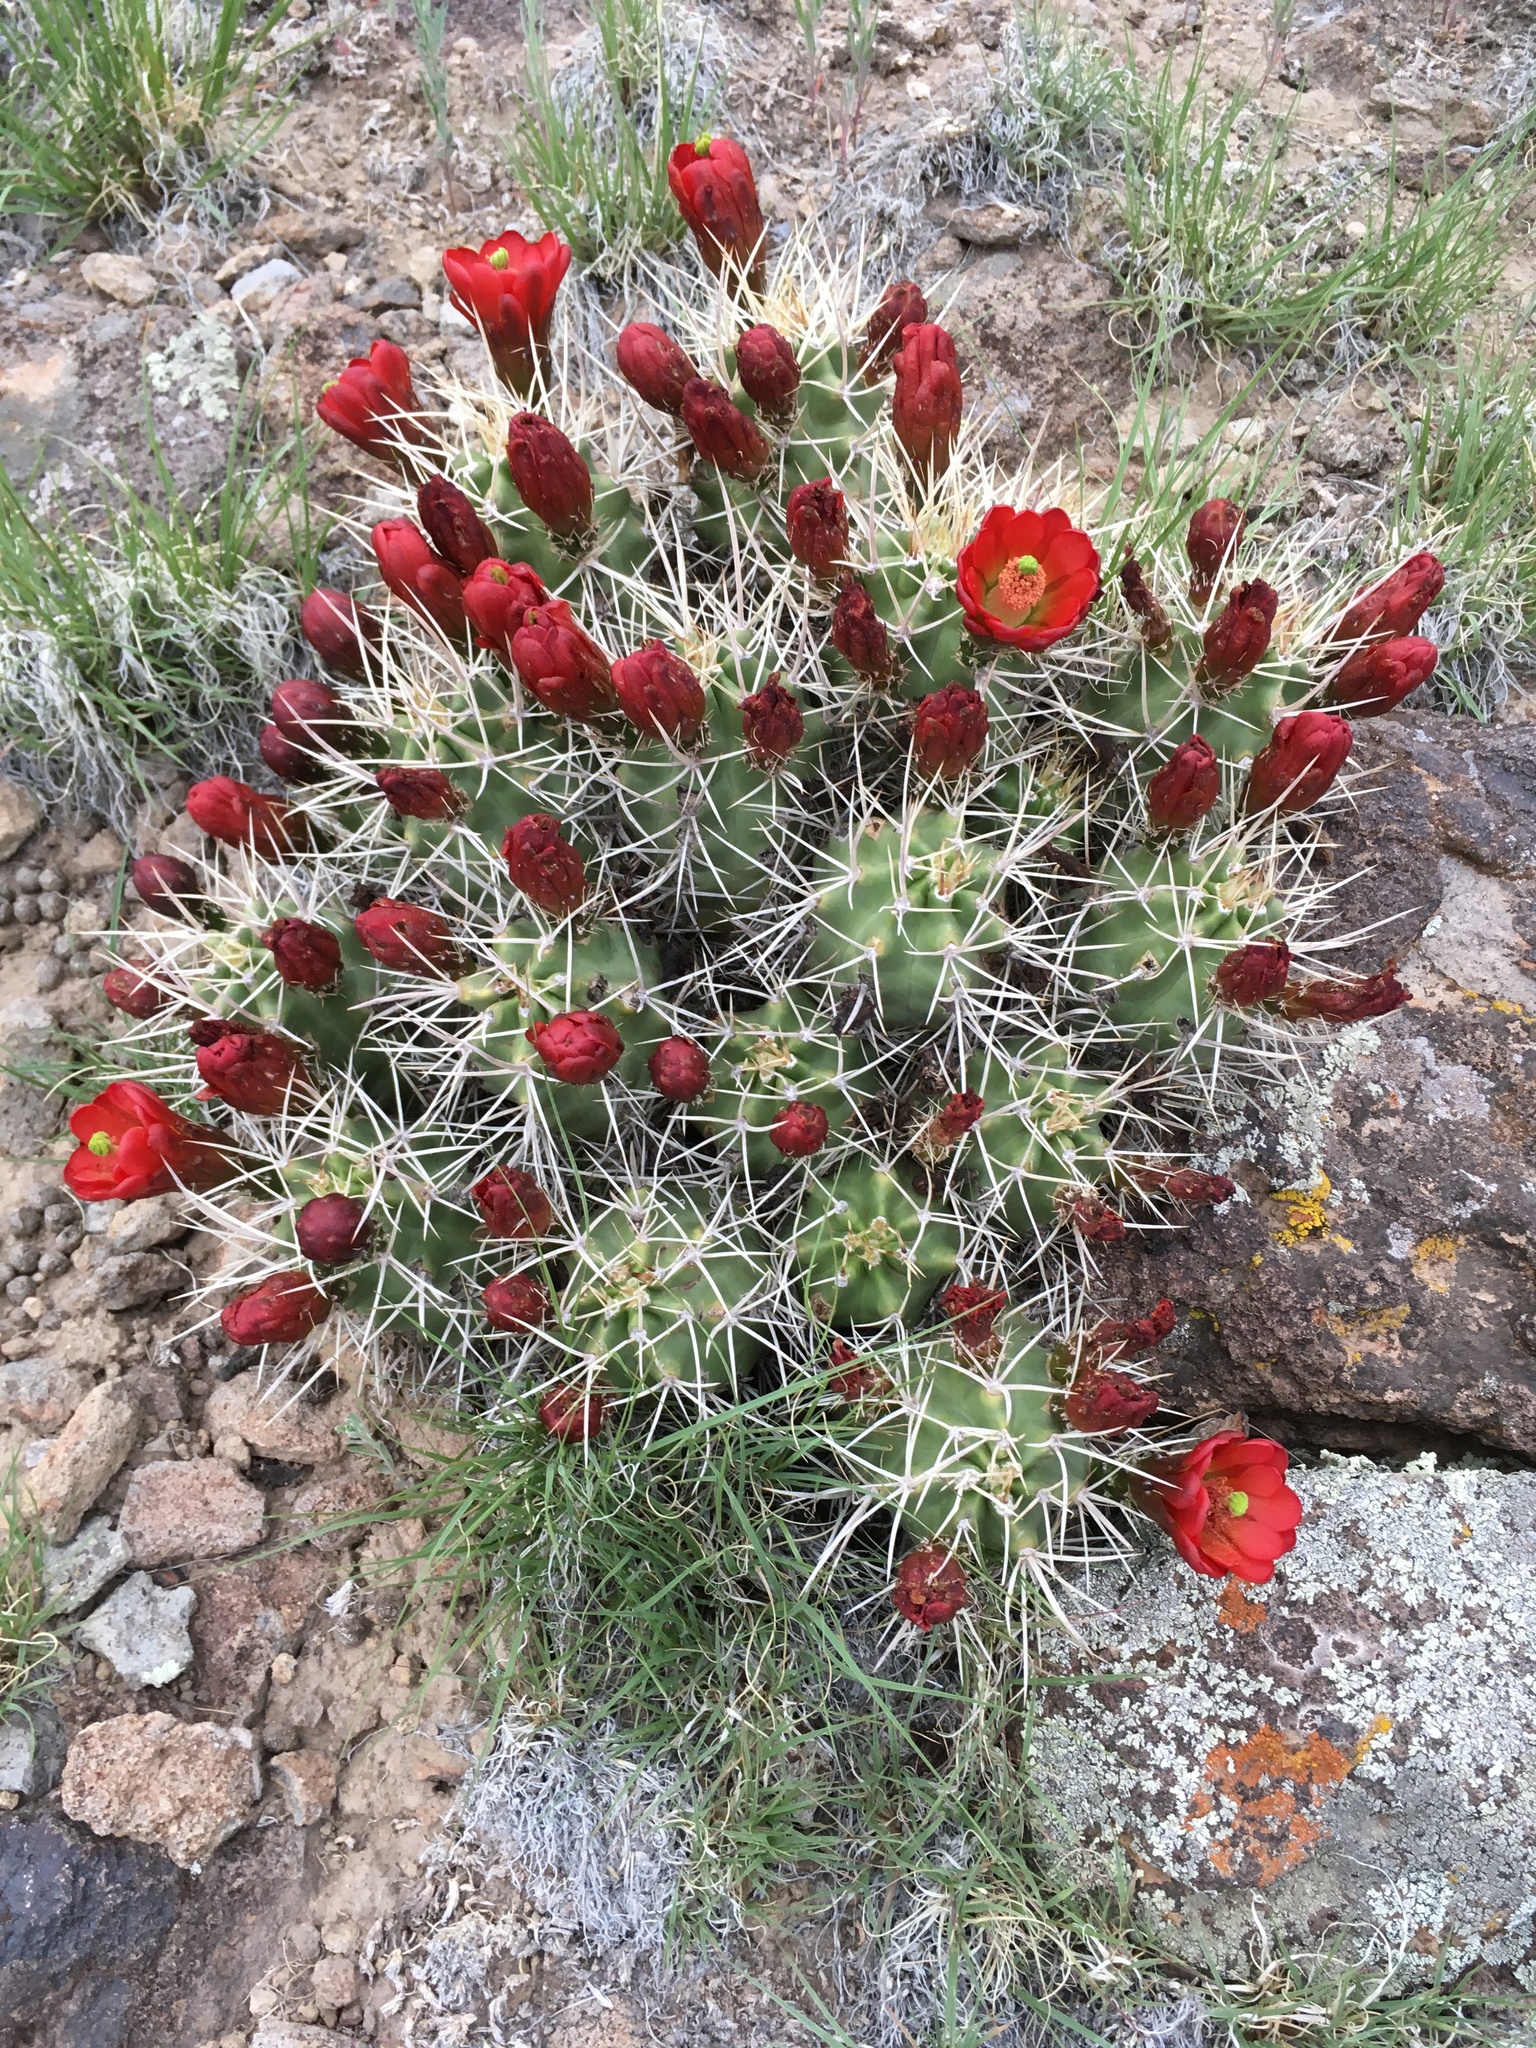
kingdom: Plantae
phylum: Tracheophyta
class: Magnoliopsida
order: Caryophyllales
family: Cactaceae
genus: Echinocereus
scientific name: Echinocereus triglochidiatus
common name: Claretcup hedgehog
